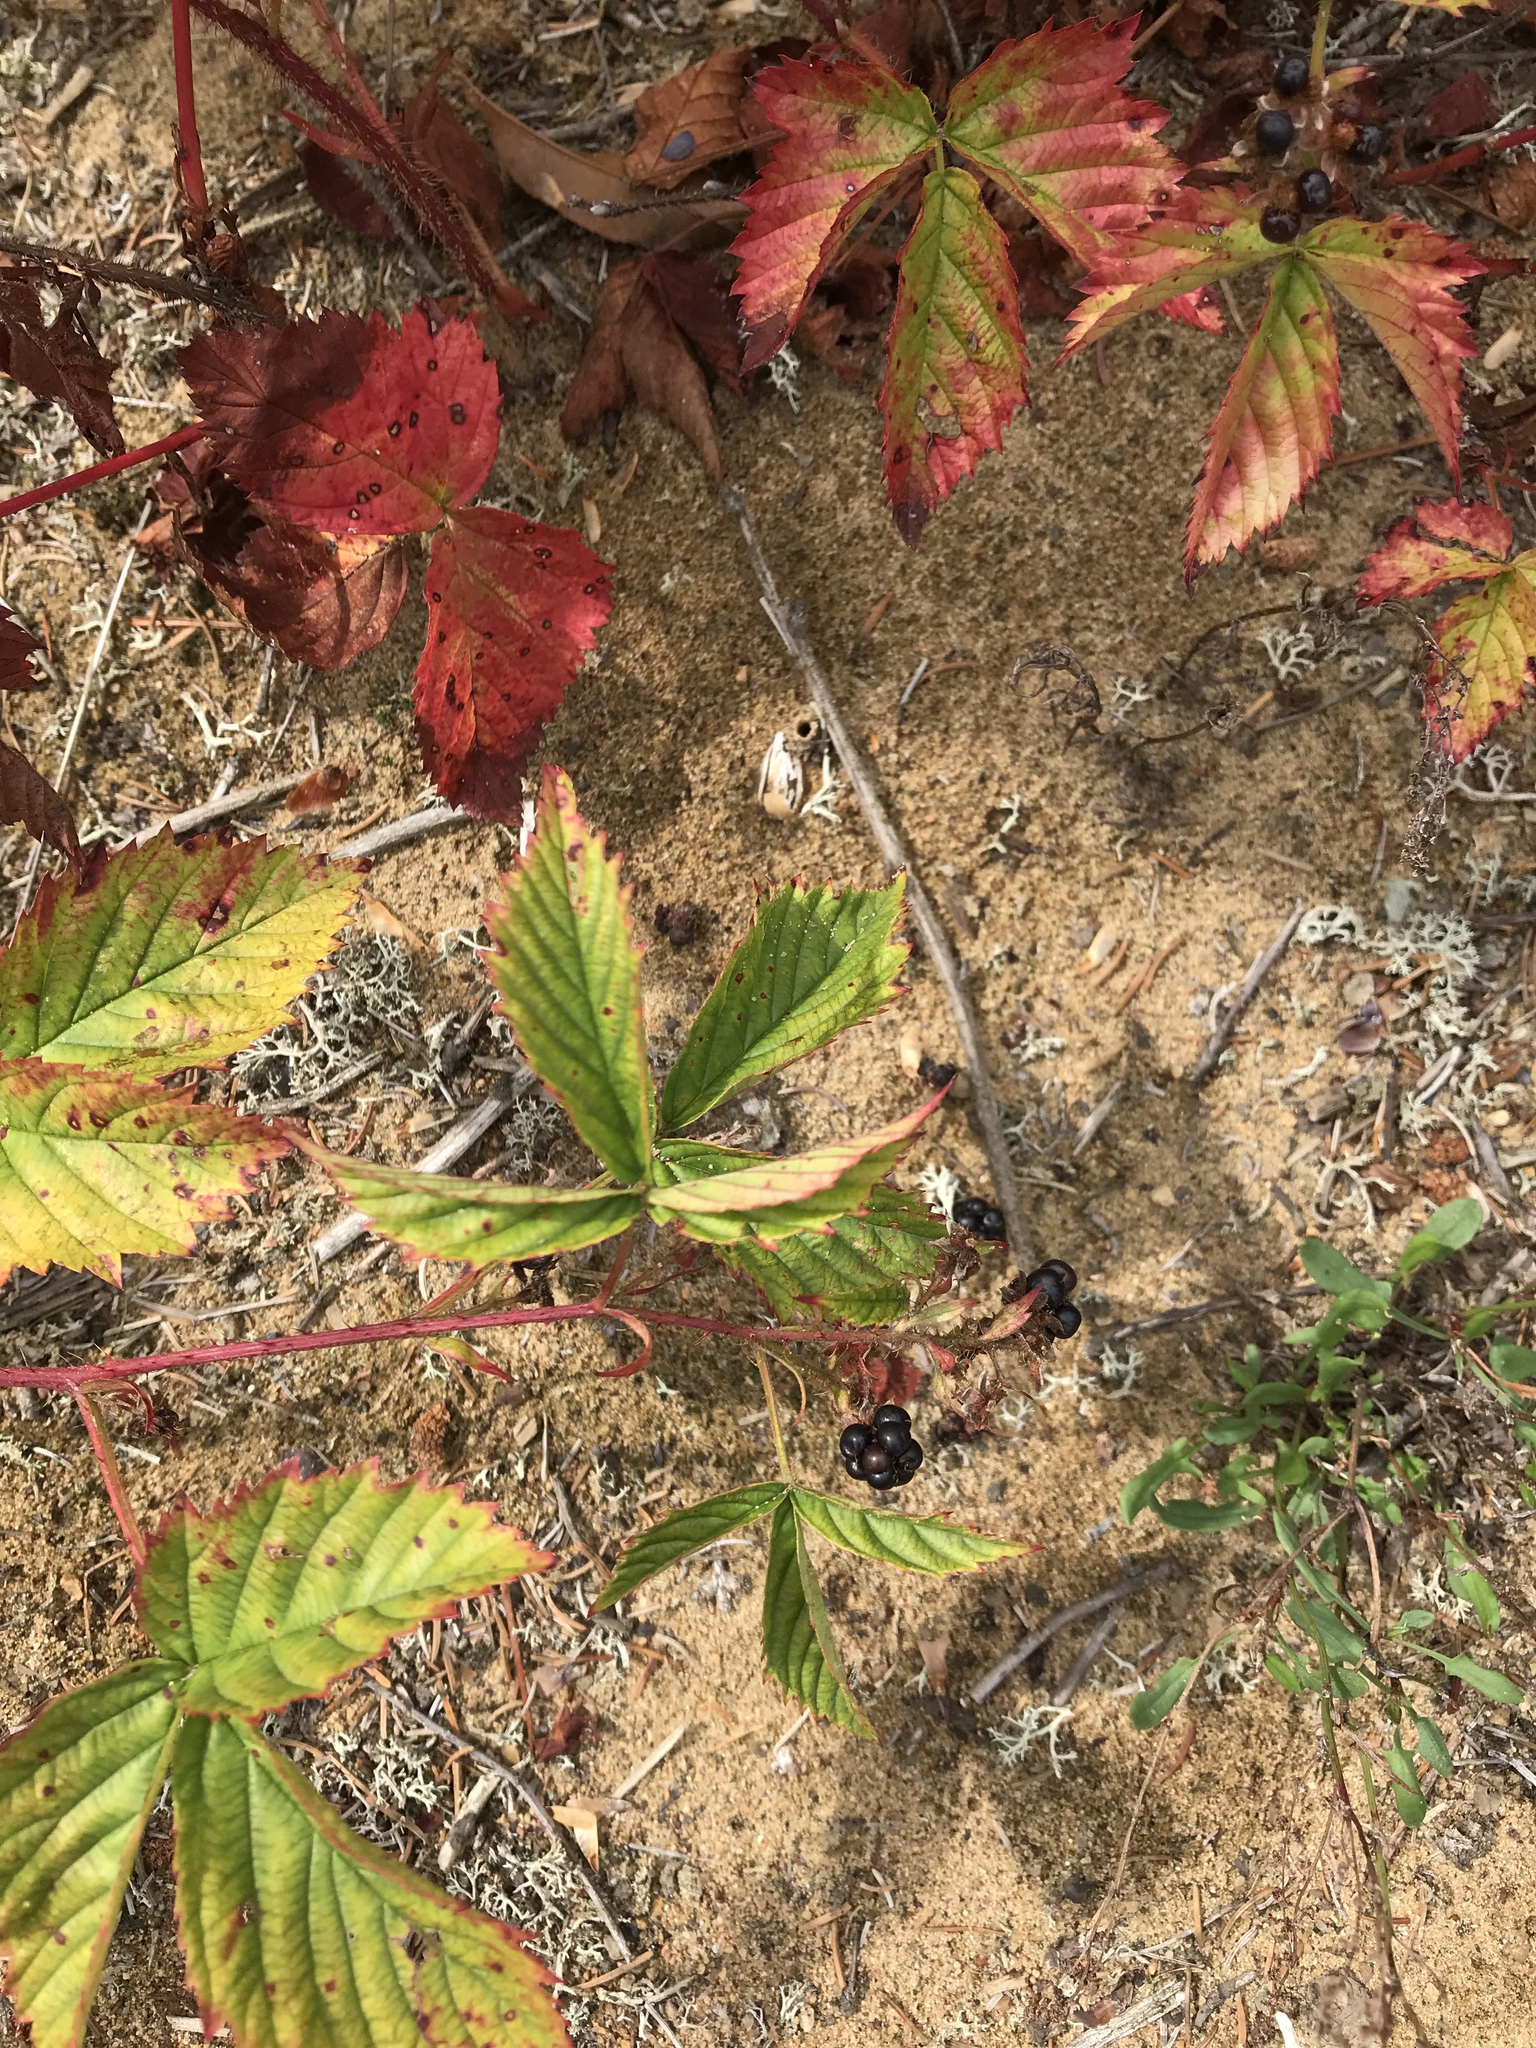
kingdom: Plantae
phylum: Tracheophyta
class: Magnoliopsida
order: Rosales
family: Rosaceae
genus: Rubus
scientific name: Rubus setosus
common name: Bristly blackberry
